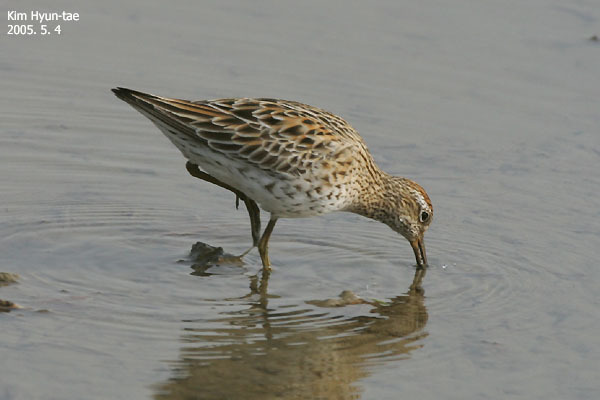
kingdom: Animalia
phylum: Chordata
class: Aves
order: Charadriiformes
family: Scolopacidae
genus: Calidris
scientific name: Calidris acuminata
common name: Sharp-tailed sandpiper
